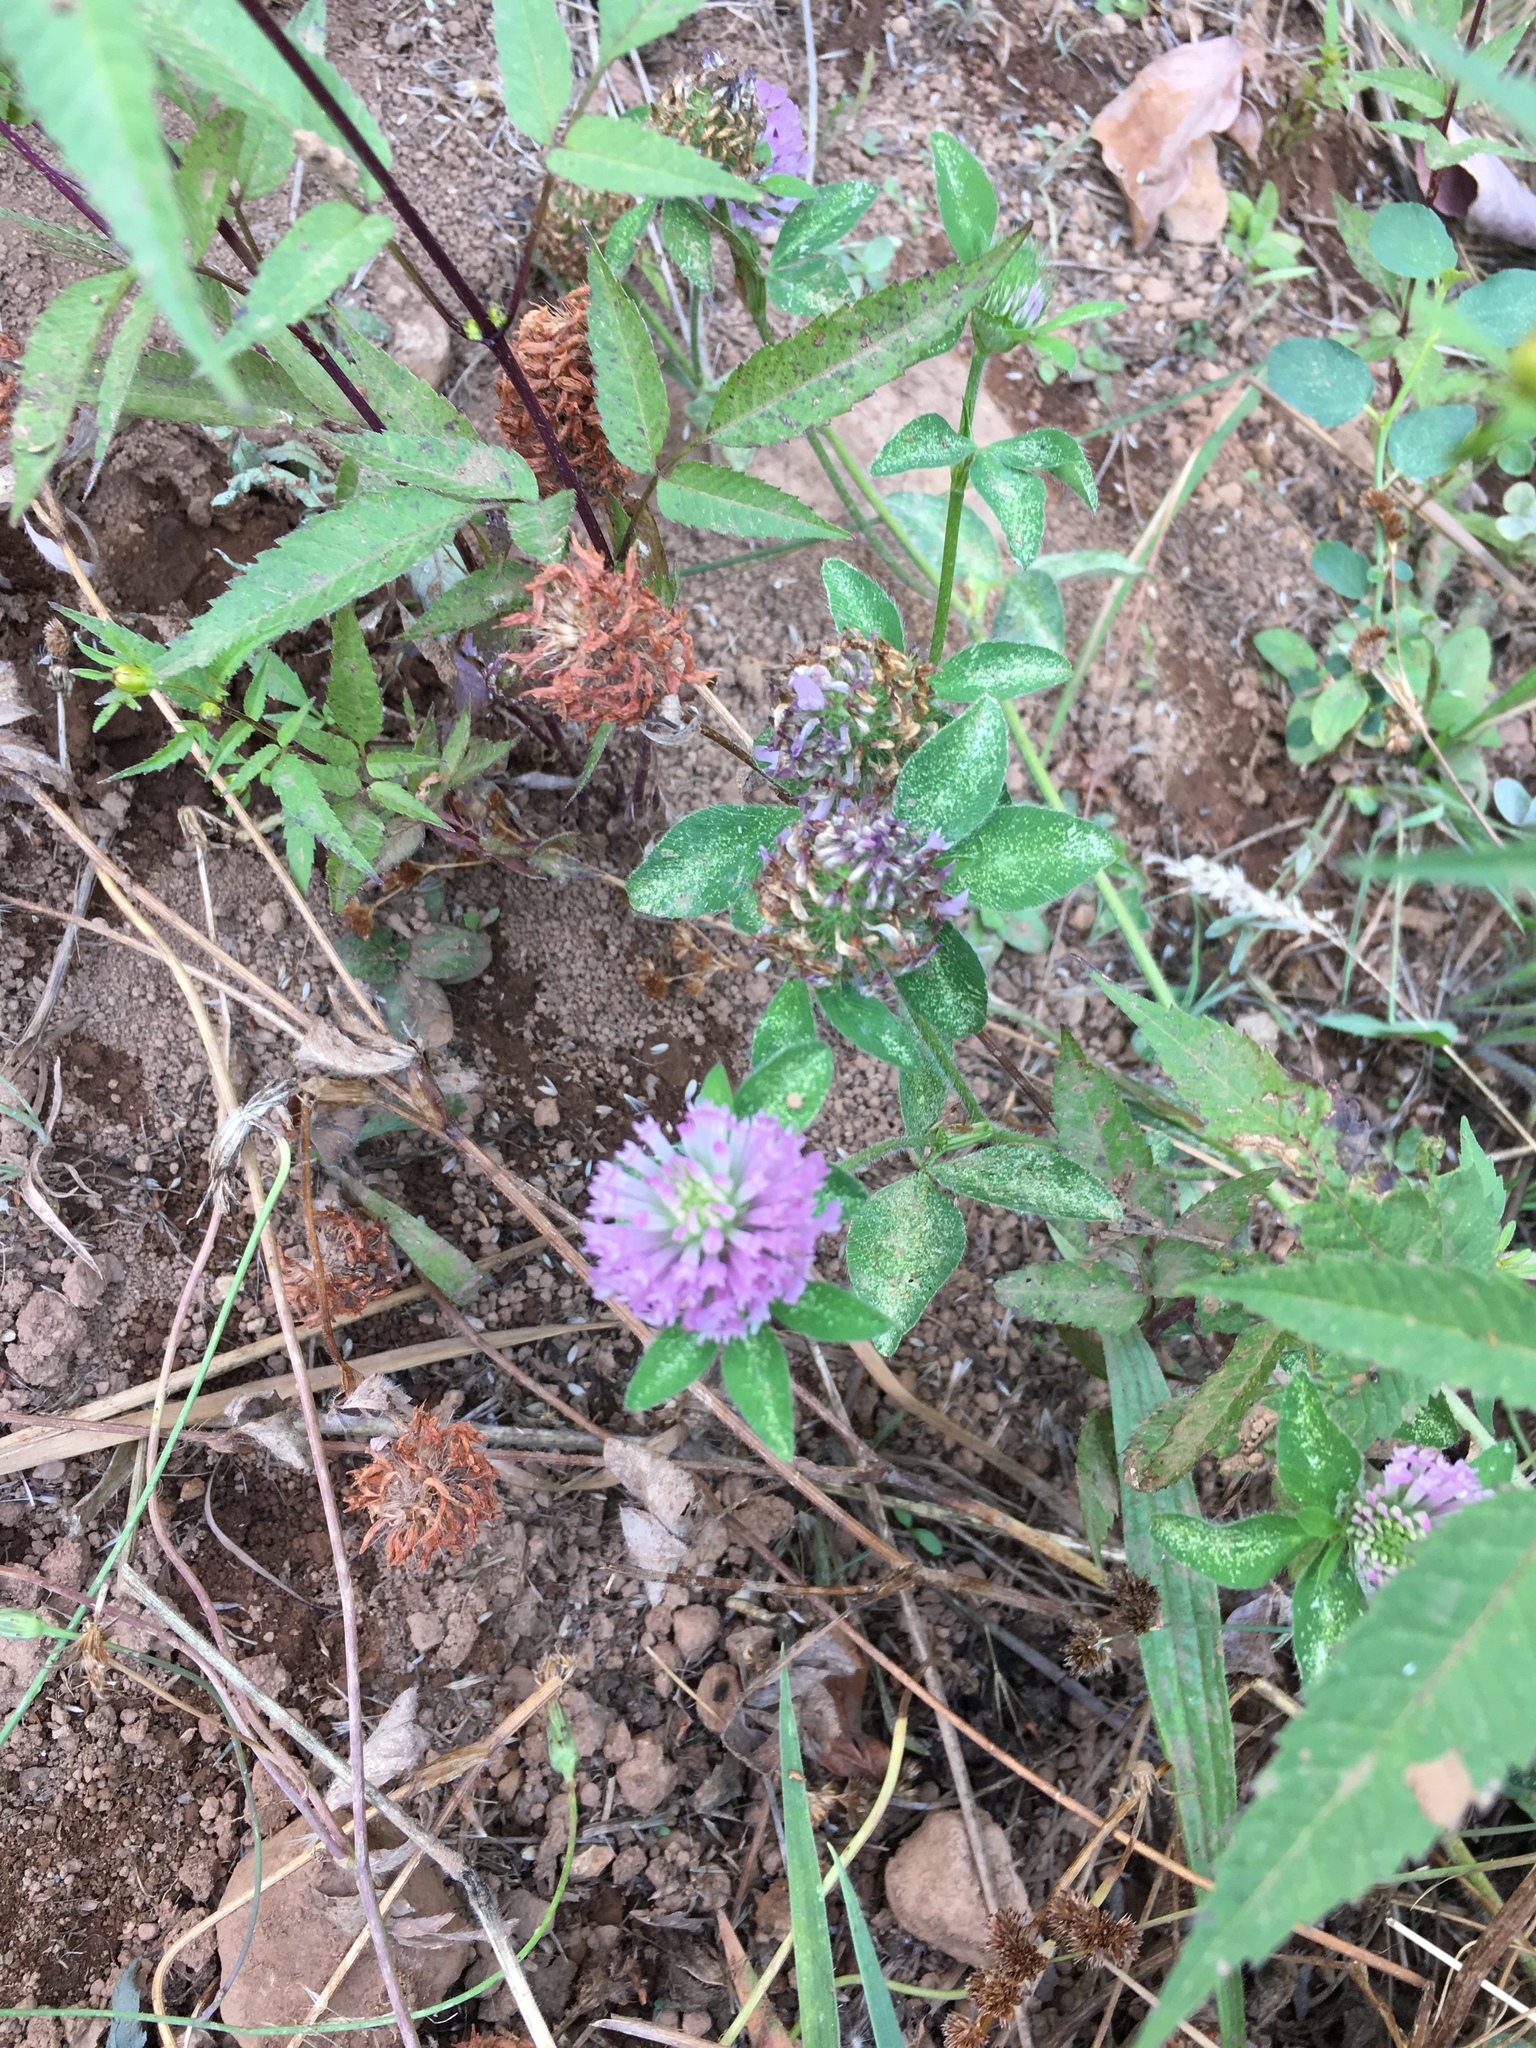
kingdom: Plantae
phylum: Tracheophyta
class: Magnoliopsida
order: Fabales
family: Fabaceae
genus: Trifolium
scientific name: Trifolium pratense
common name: Red clover
